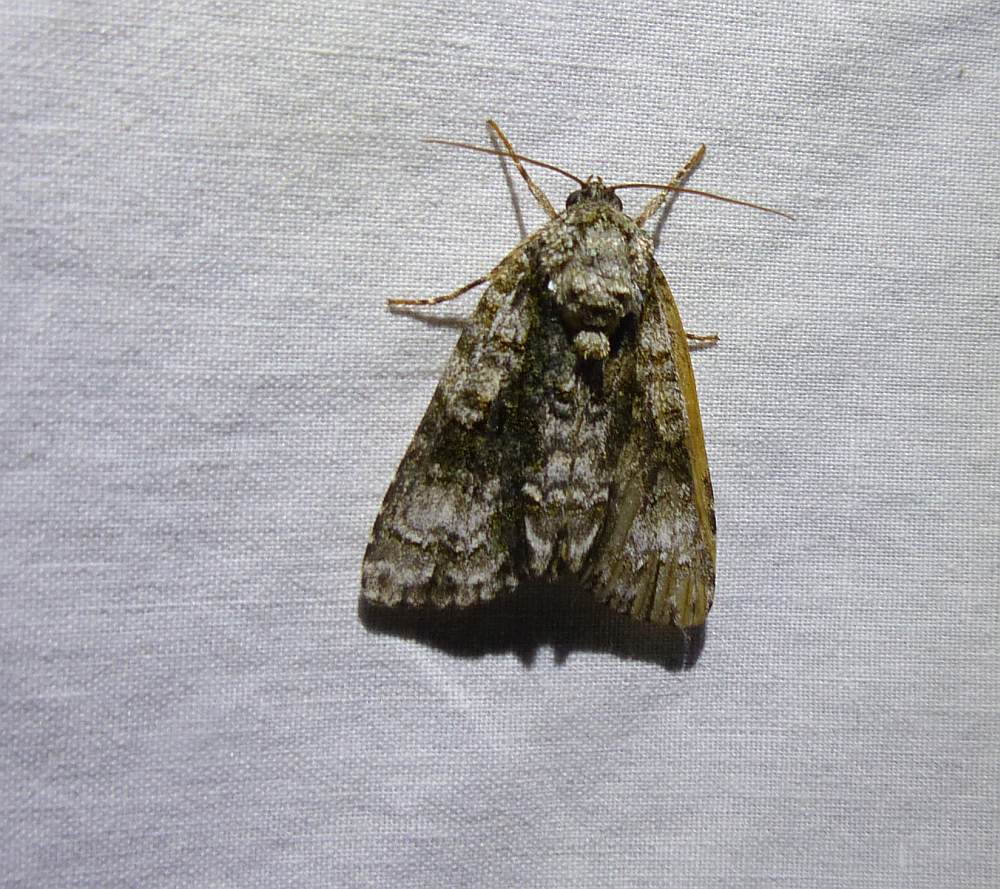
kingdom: Animalia
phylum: Arthropoda
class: Insecta
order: Lepidoptera
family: Noctuidae
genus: Acronicta
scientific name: Acronicta superans
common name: Splendid dagger
